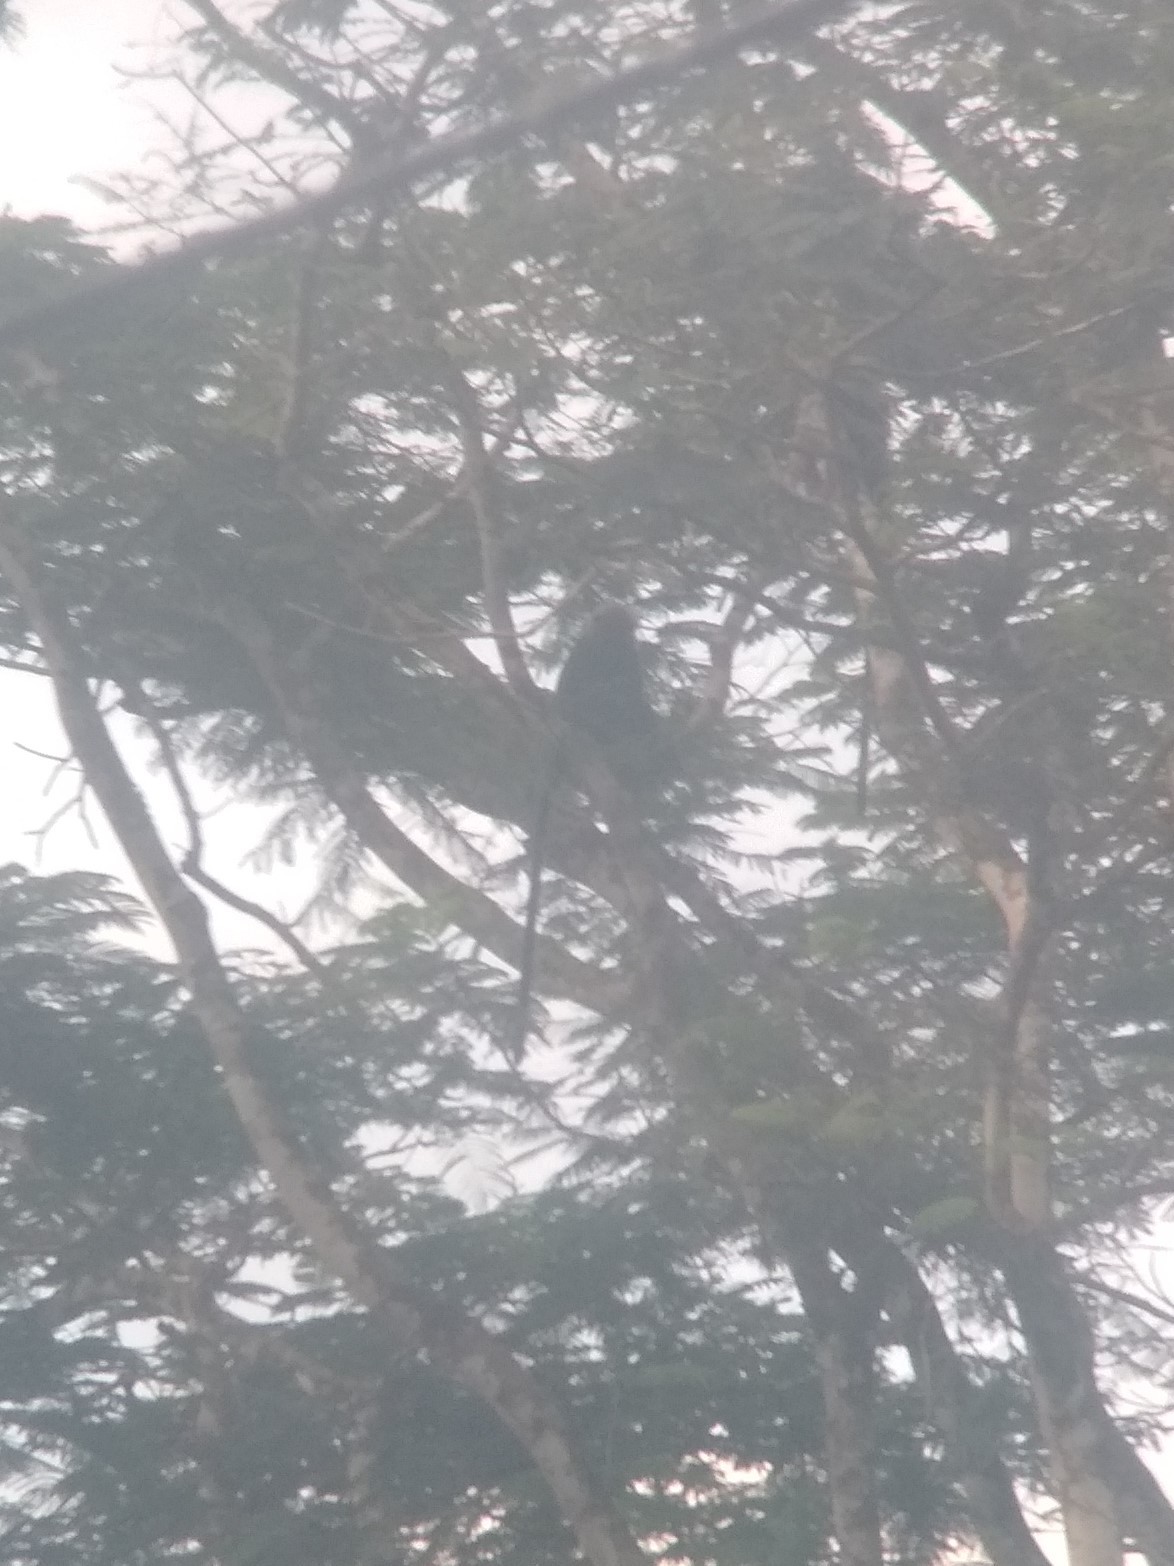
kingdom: Animalia
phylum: Chordata
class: Mammalia
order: Primates
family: Cercopithecidae
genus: Semnopithecus
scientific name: Semnopithecus johnii
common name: Nilgiri langur
